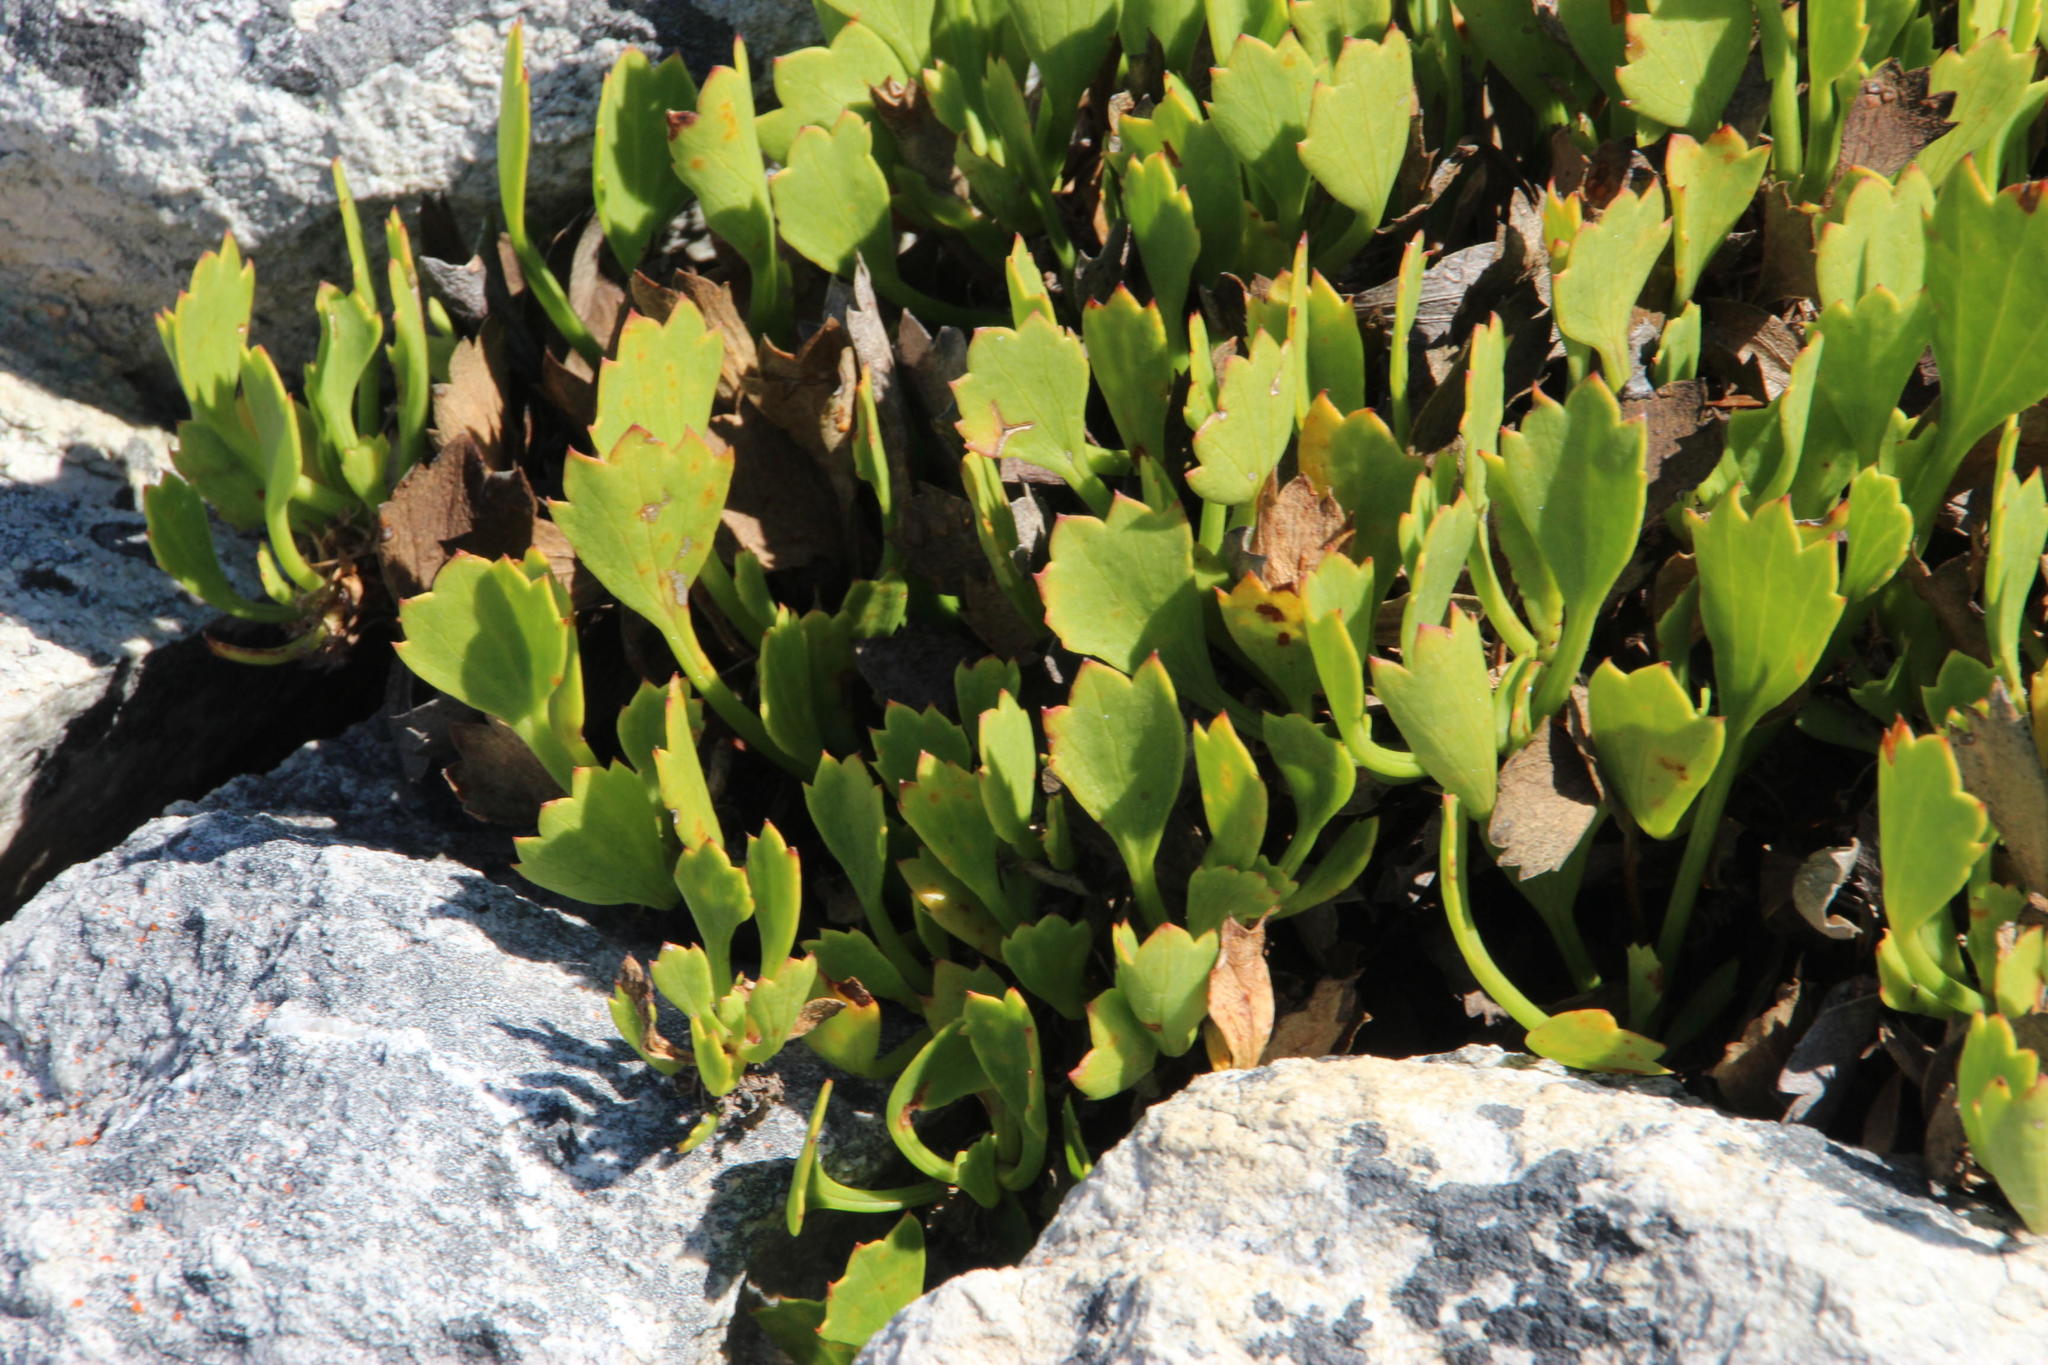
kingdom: Plantae
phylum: Tracheophyta
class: Magnoliopsida
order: Apiales
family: Apiaceae
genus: Centella
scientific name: Centella triloba
